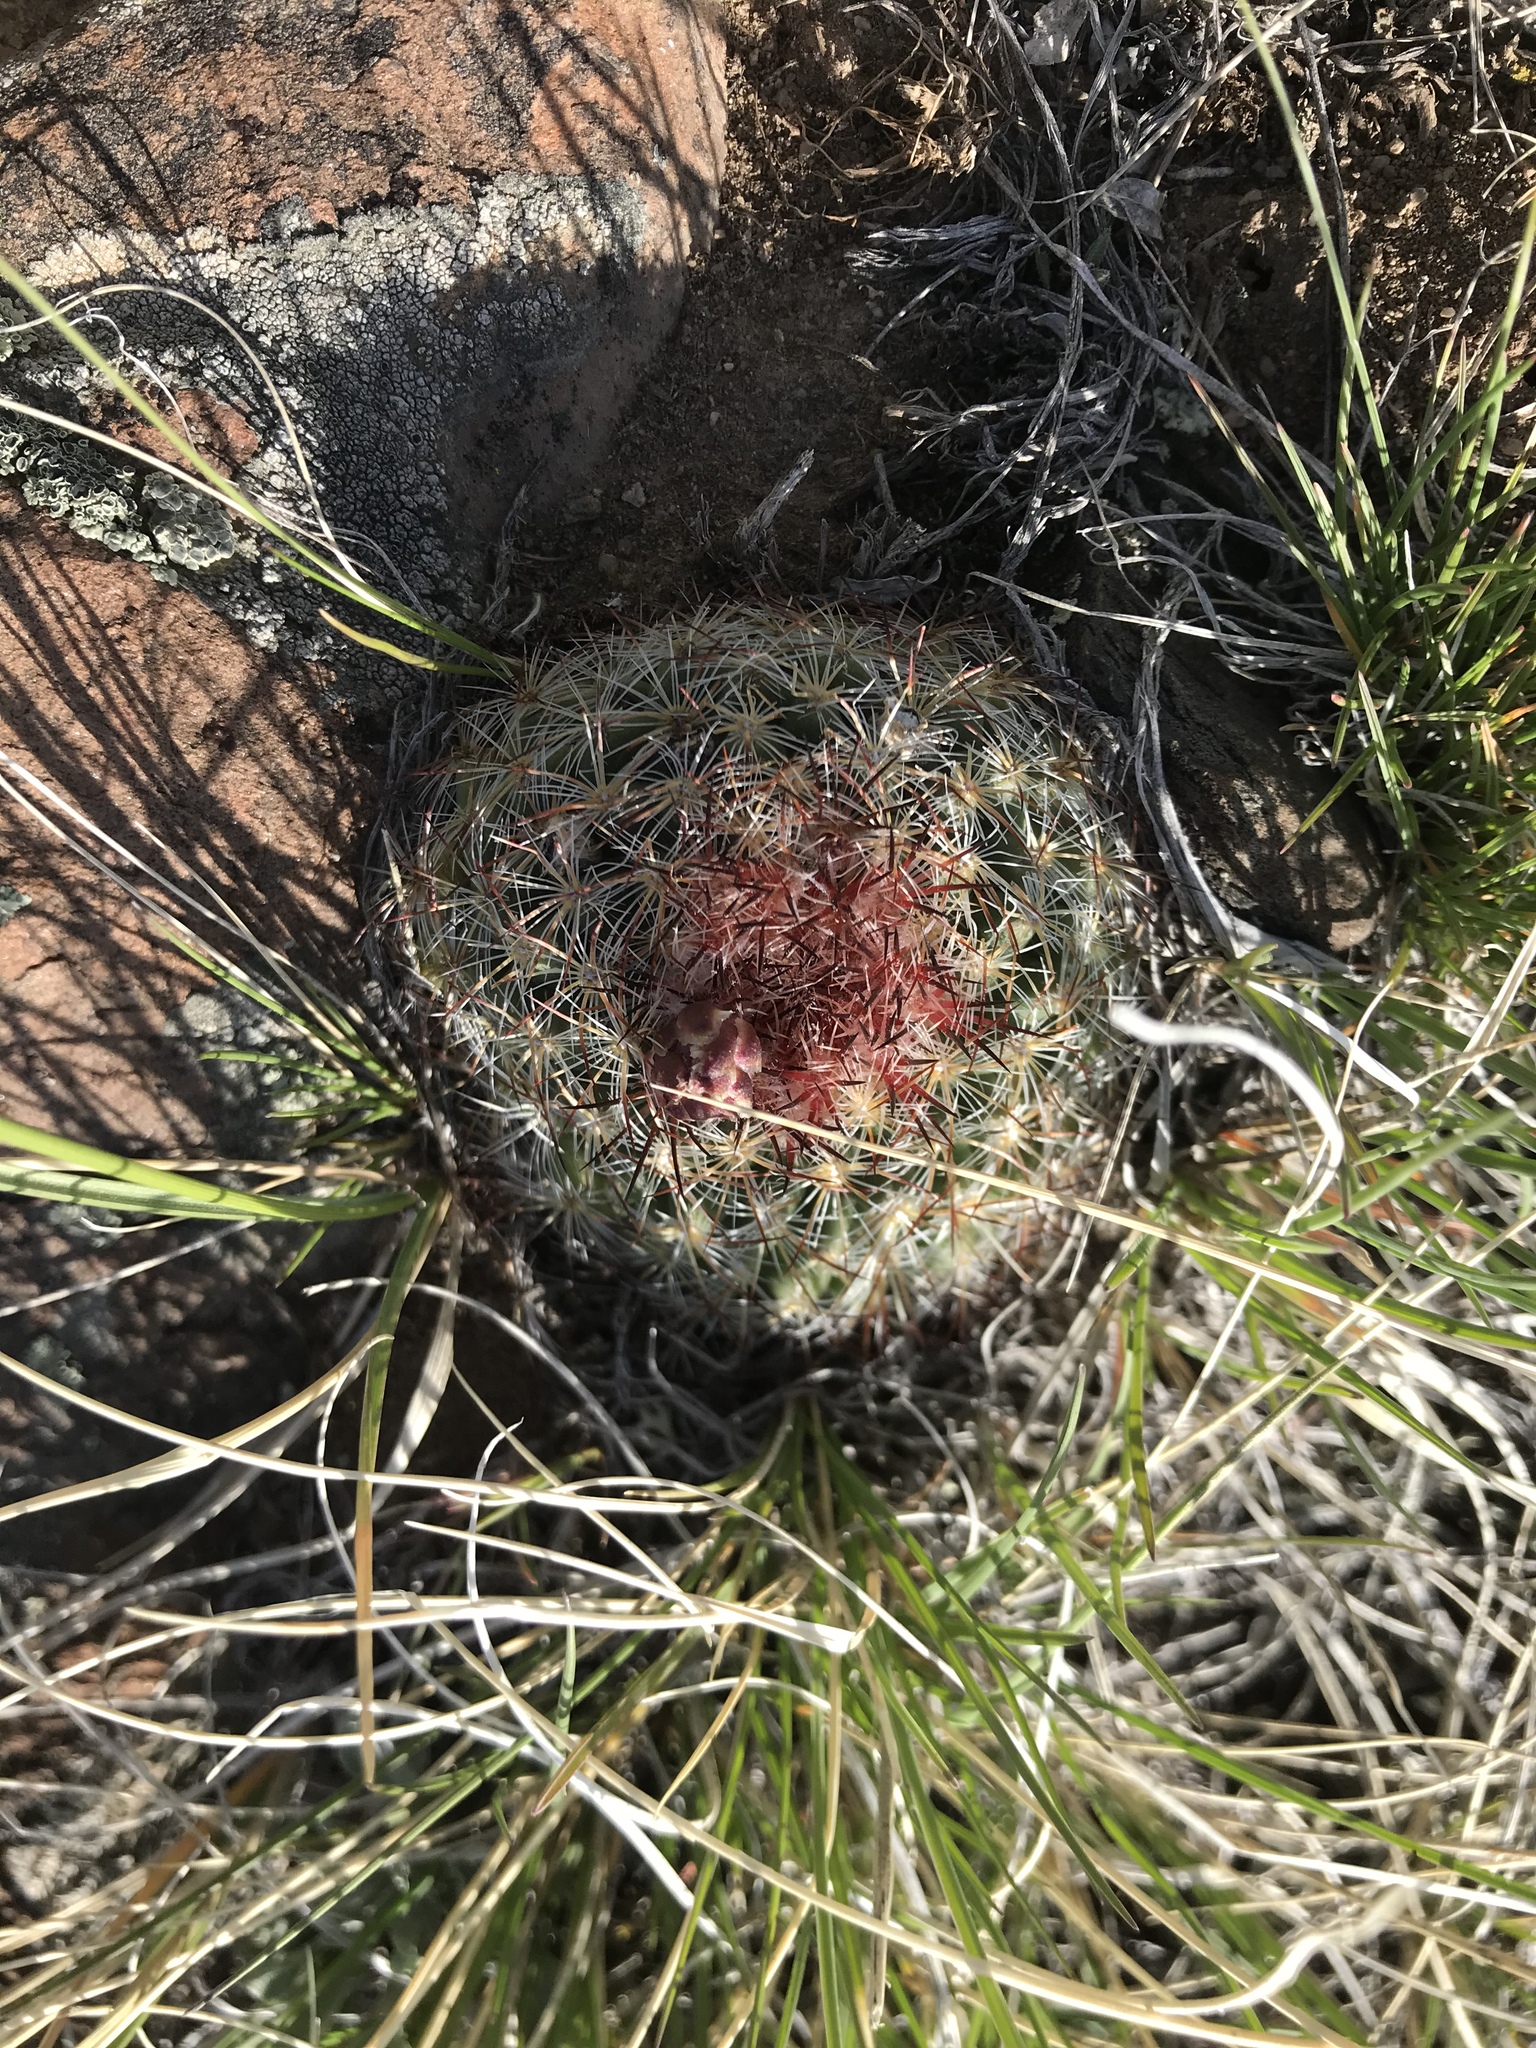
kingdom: Plantae
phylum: Tracheophyta
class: Magnoliopsida
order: Caryophyllales
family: Cactaceae
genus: Pediocactus
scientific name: Pediocactus simpsonii
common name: Simpson's hedgehog cactus
